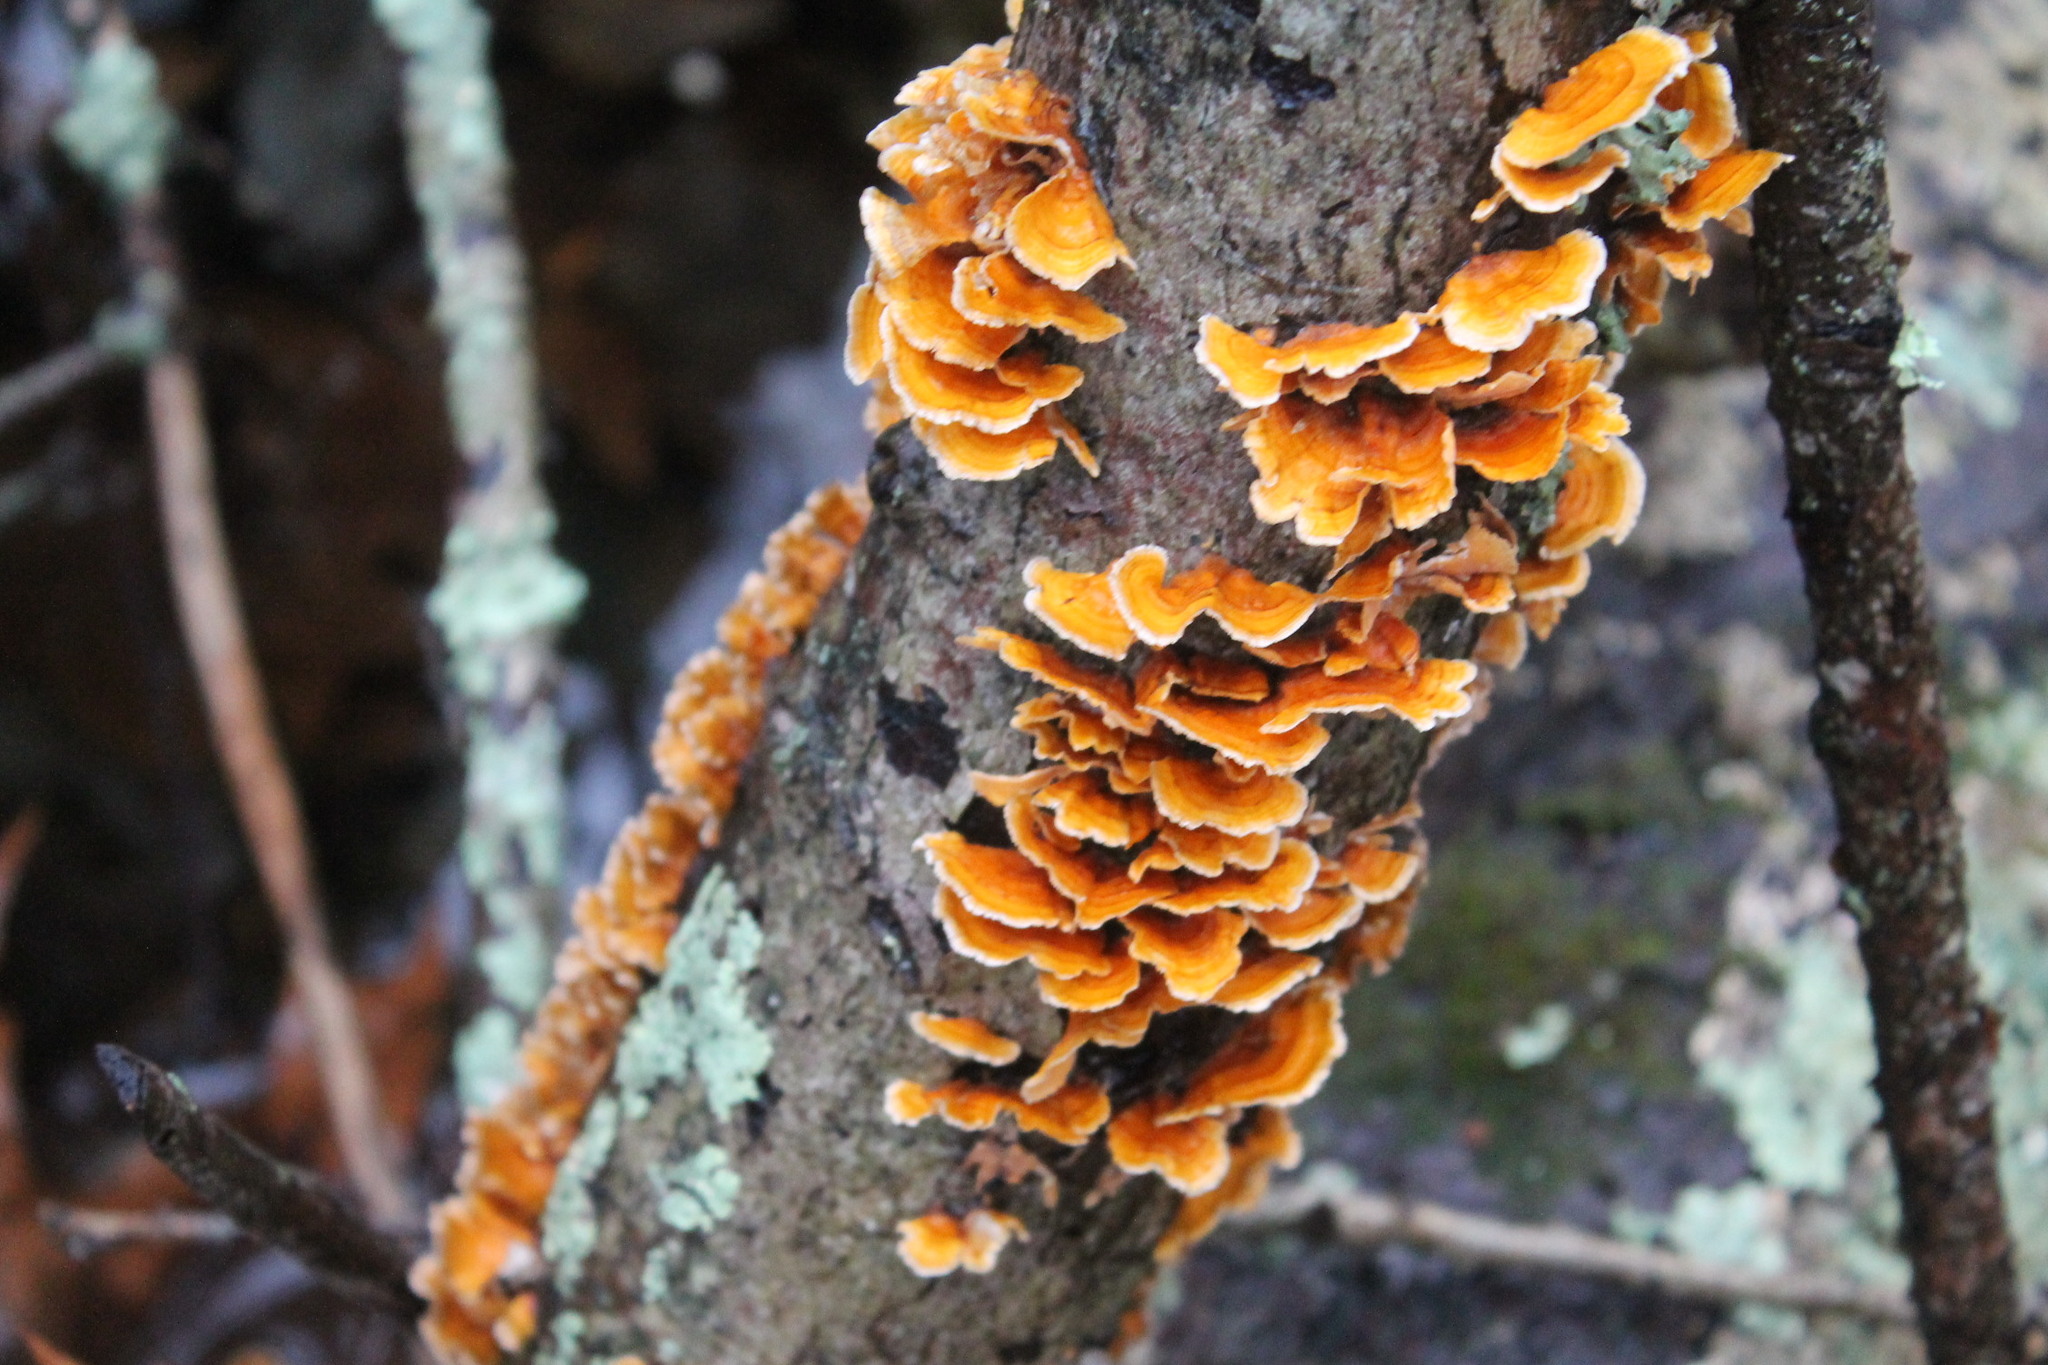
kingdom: Fungi
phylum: Basidiomycota
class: Agaricomycetes
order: Russulales
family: Stereaceae
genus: Stereum
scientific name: Stereum complicatum
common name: Crowded parchment
